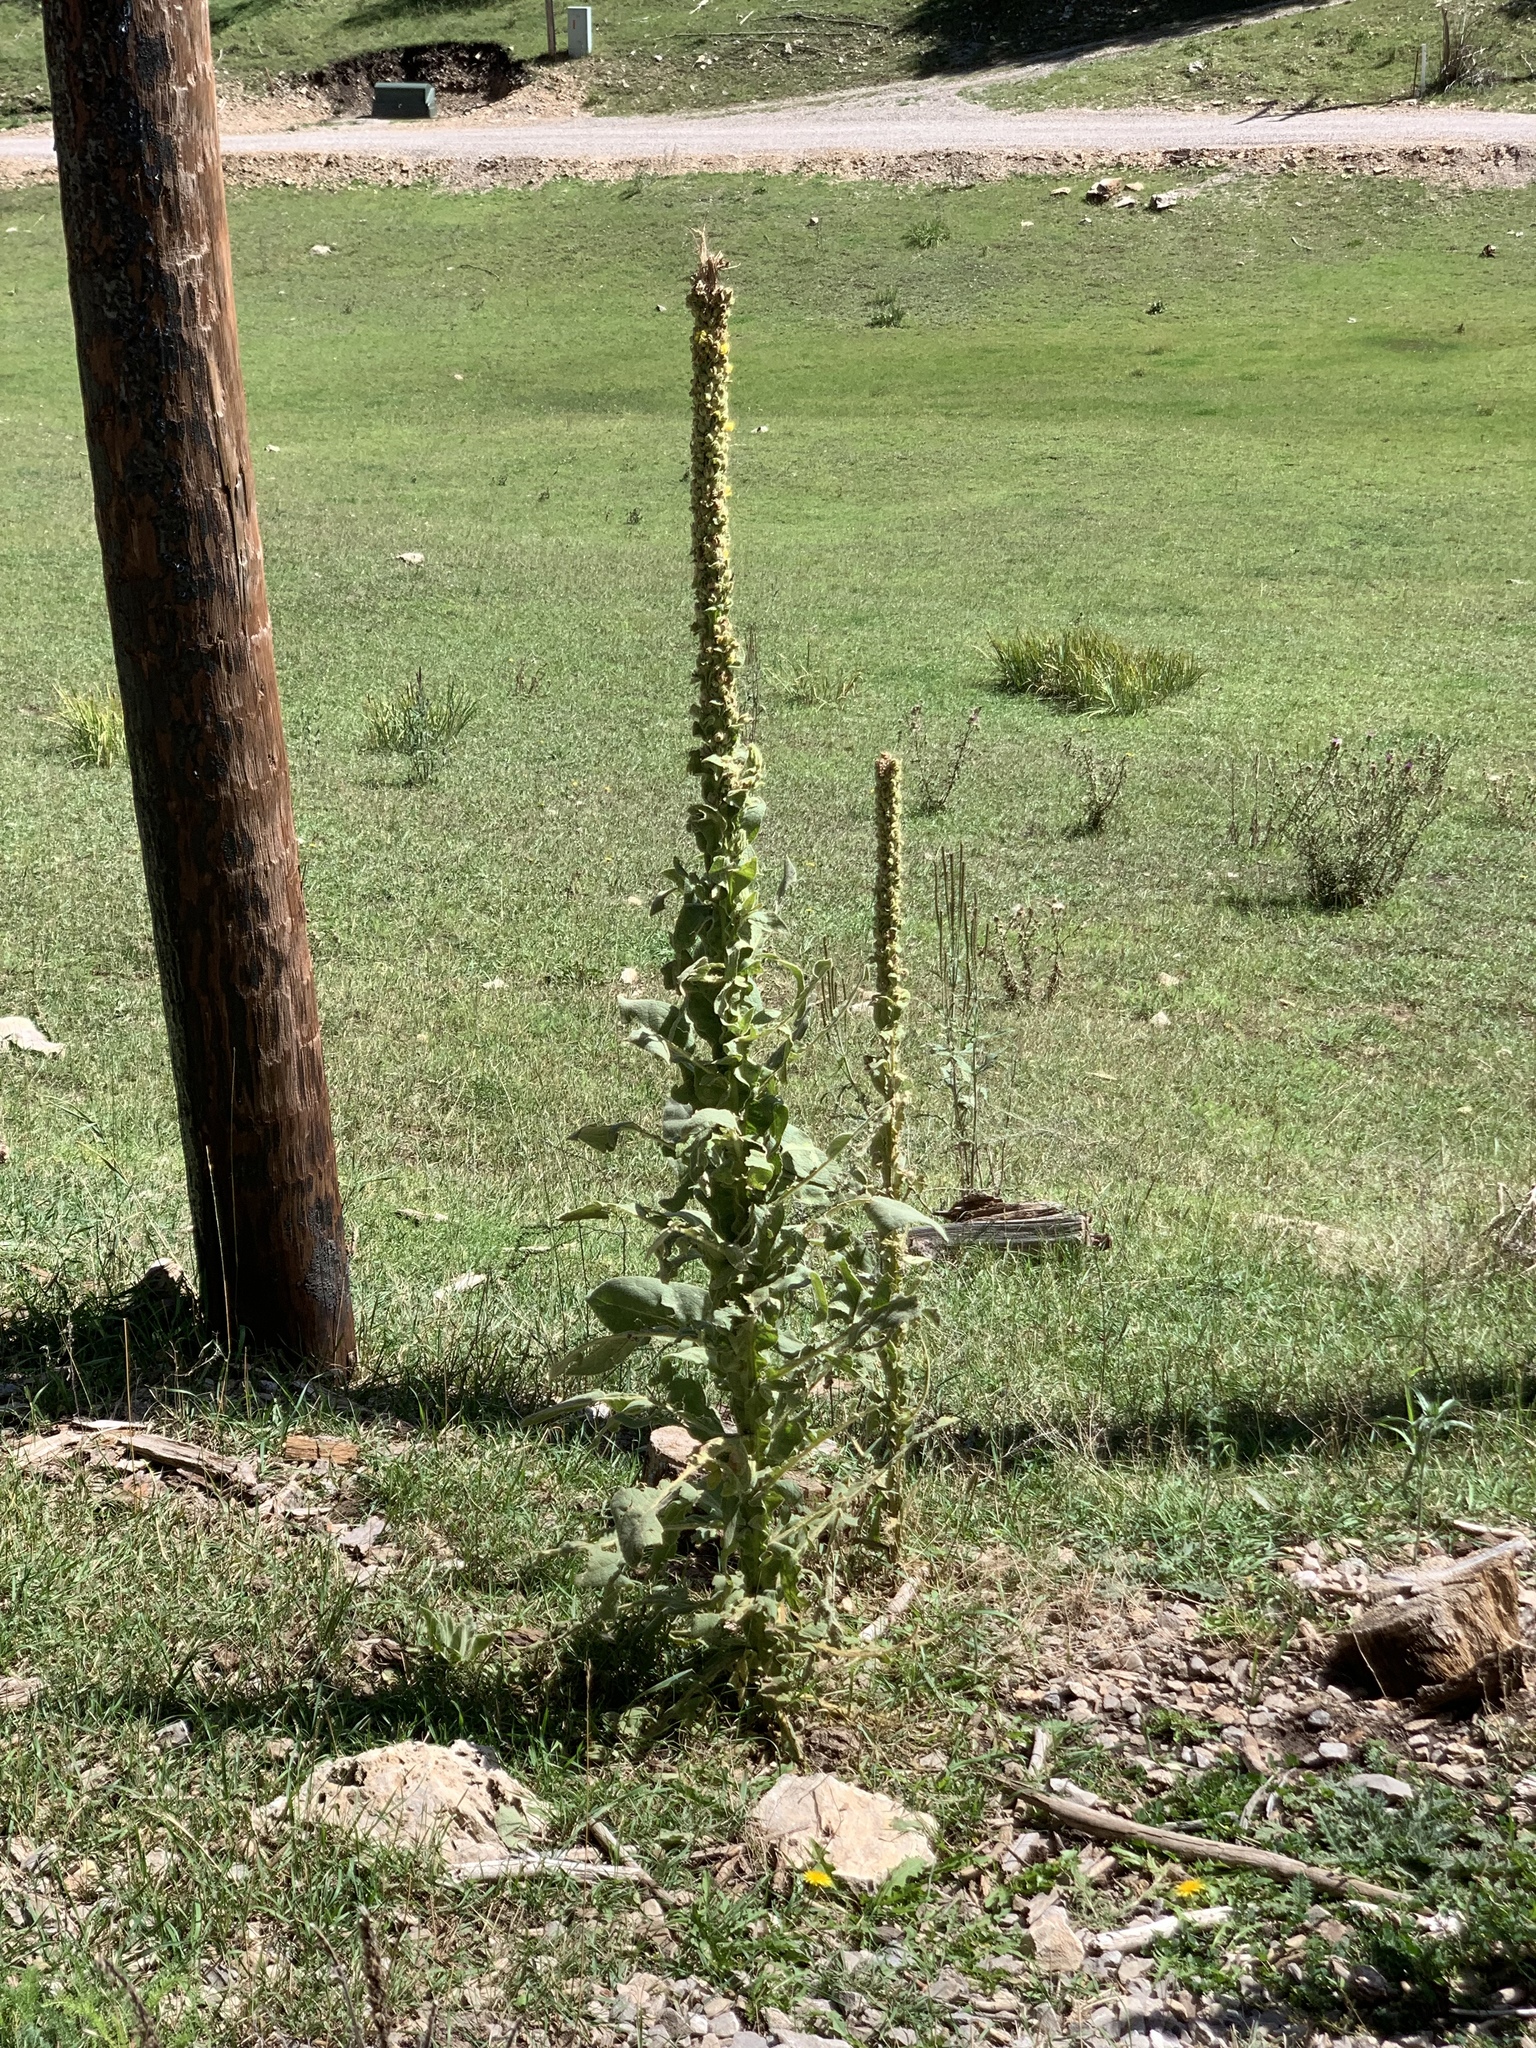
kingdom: Plantae
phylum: Tracheophyta
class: Magnoliopsida
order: Lamiales
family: Scrophulariaceae
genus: Verbascum
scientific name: Verbascum thapsus
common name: Common mullein
